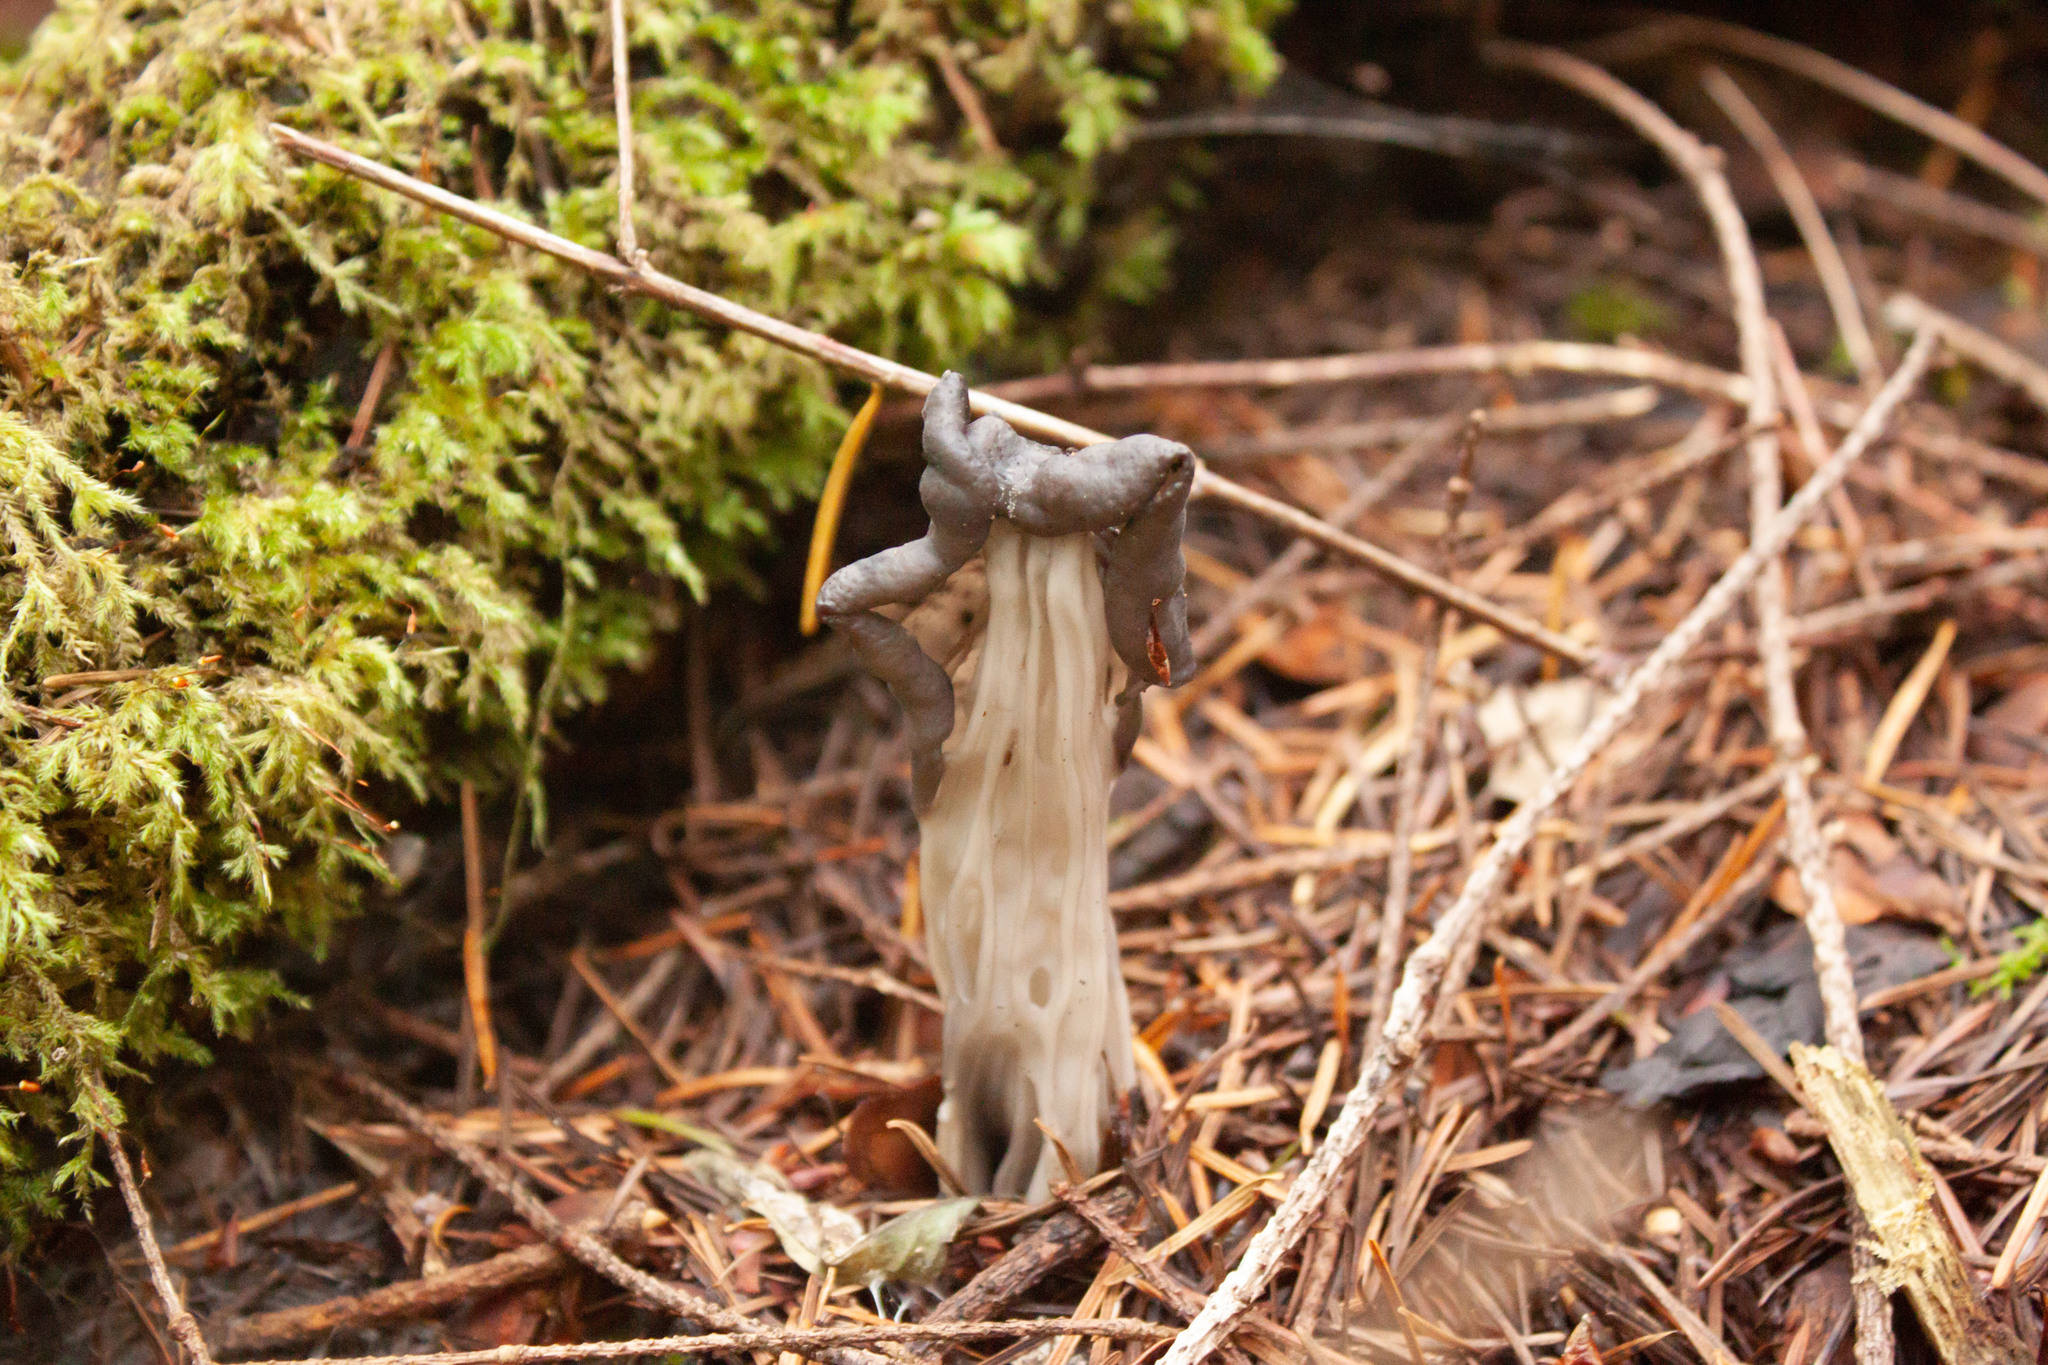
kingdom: Fungi
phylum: Ascomycota
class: Pezizomycetes
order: Pezizales
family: Helvellaceae
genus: Helvella
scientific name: Helvella vespertina
